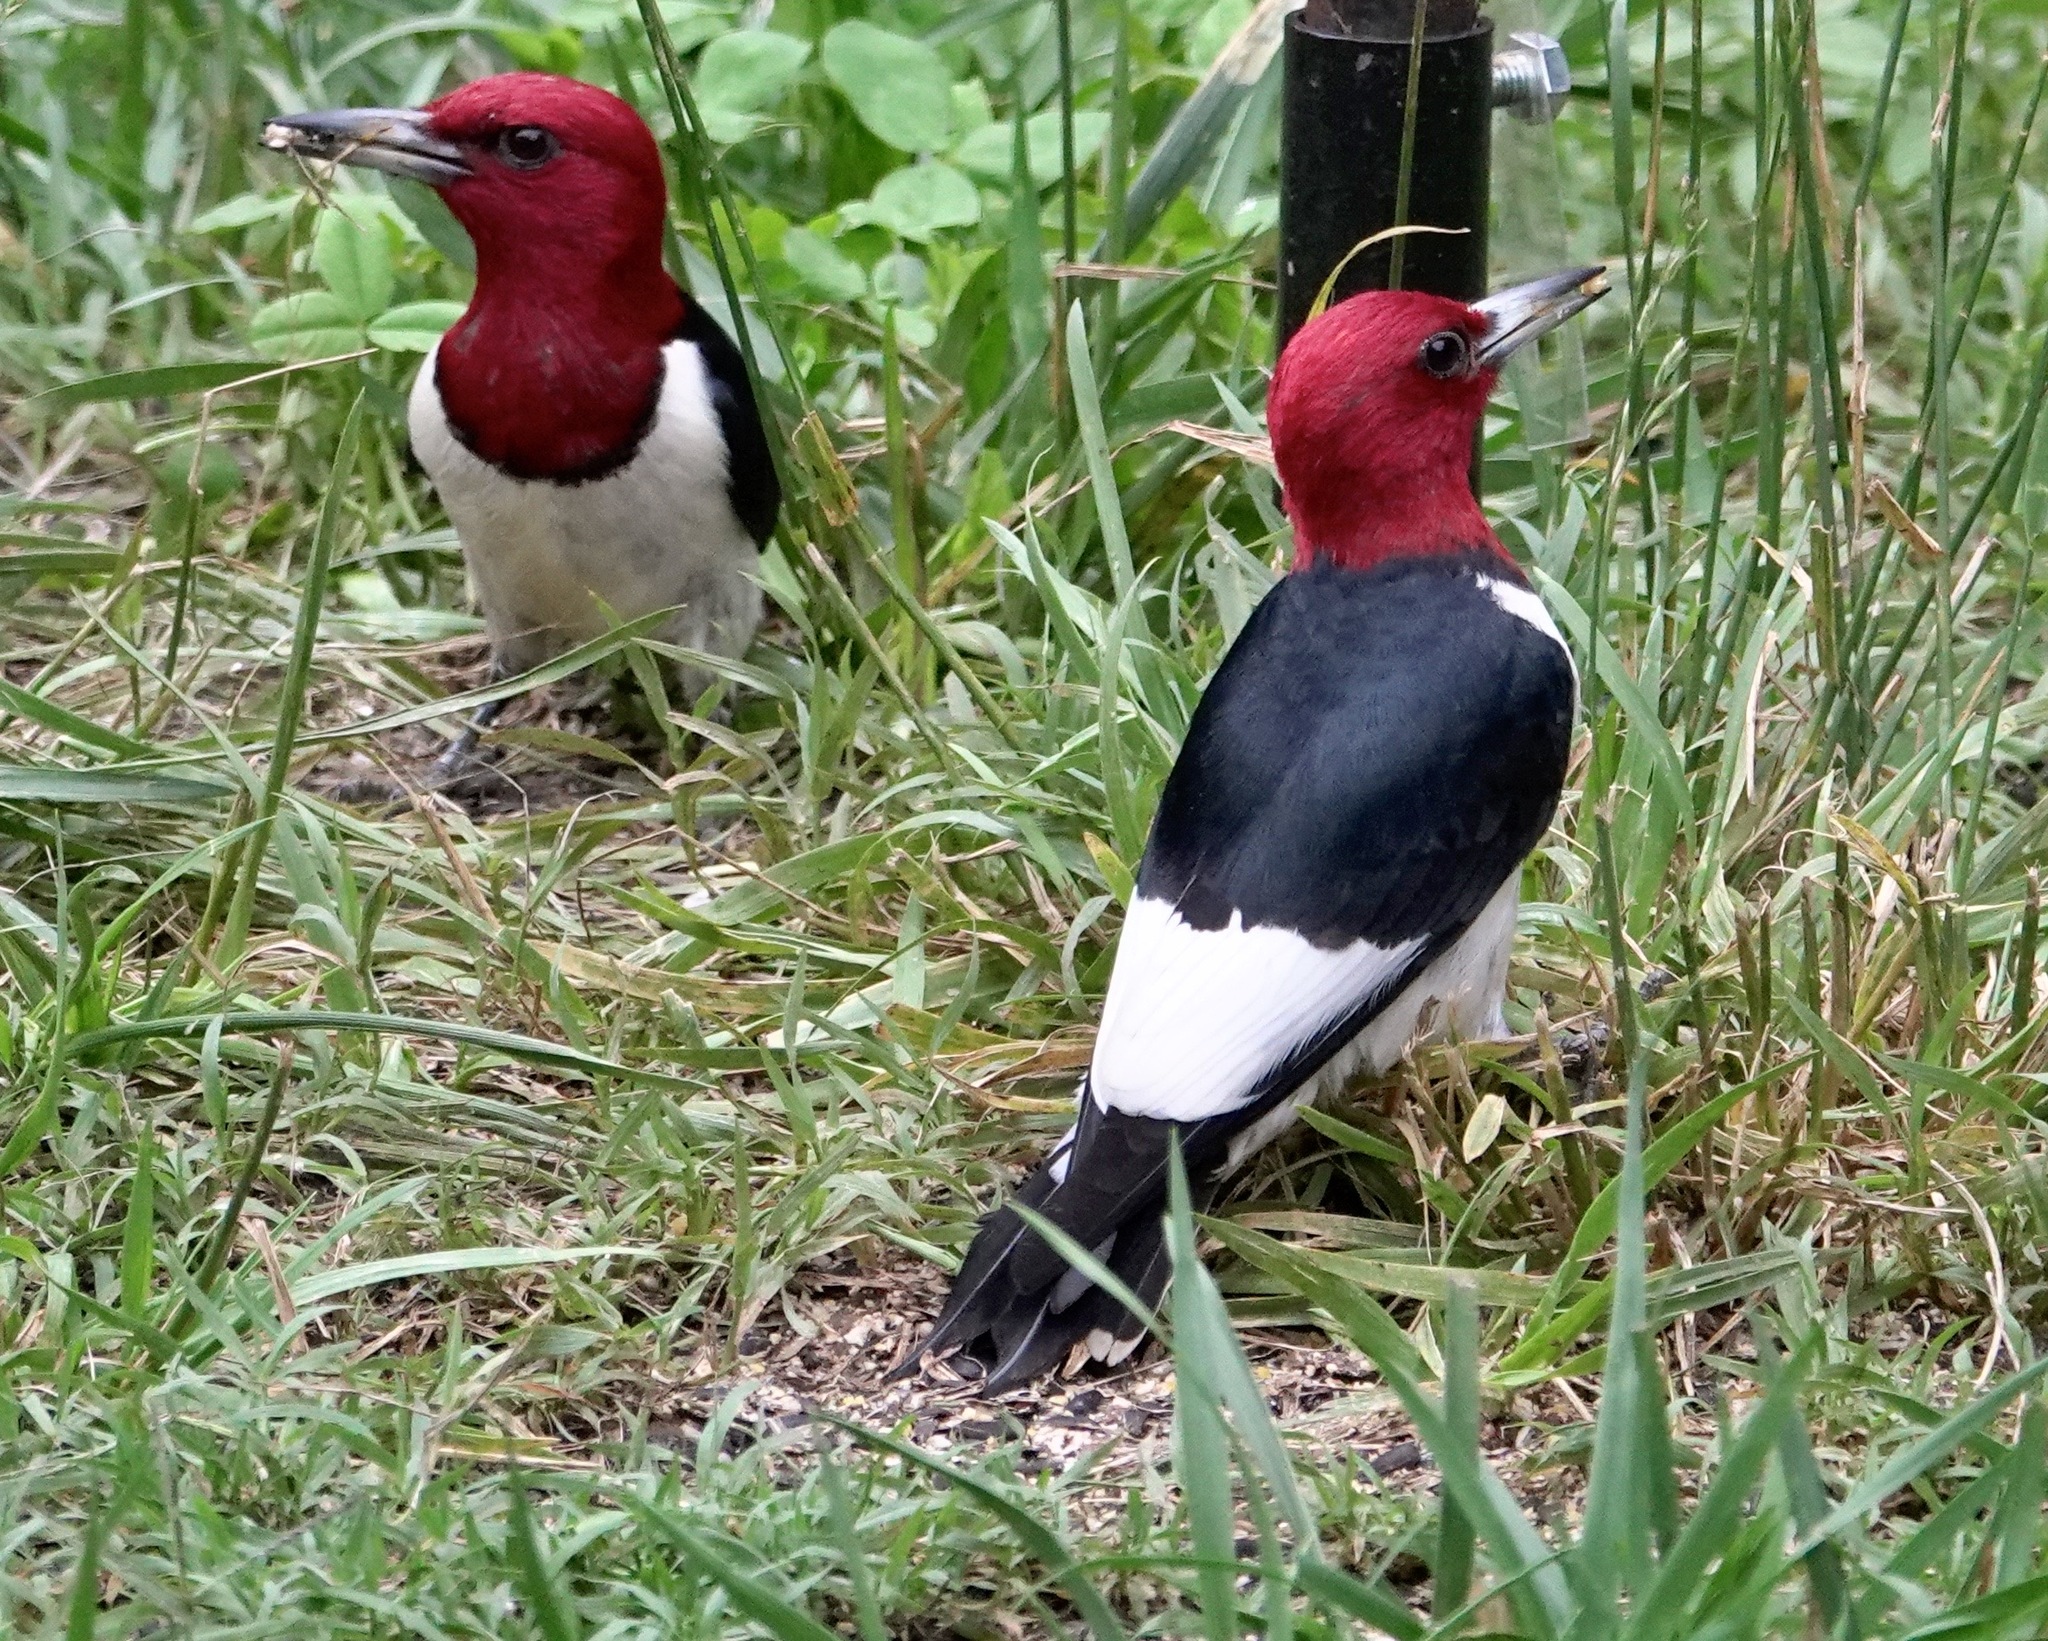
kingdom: Animalia
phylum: Chordata
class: Aves
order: Piciformes
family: Picidae
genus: Melanerpes
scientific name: Melanerpes erythrocephalus
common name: Red-headed woodpecker
